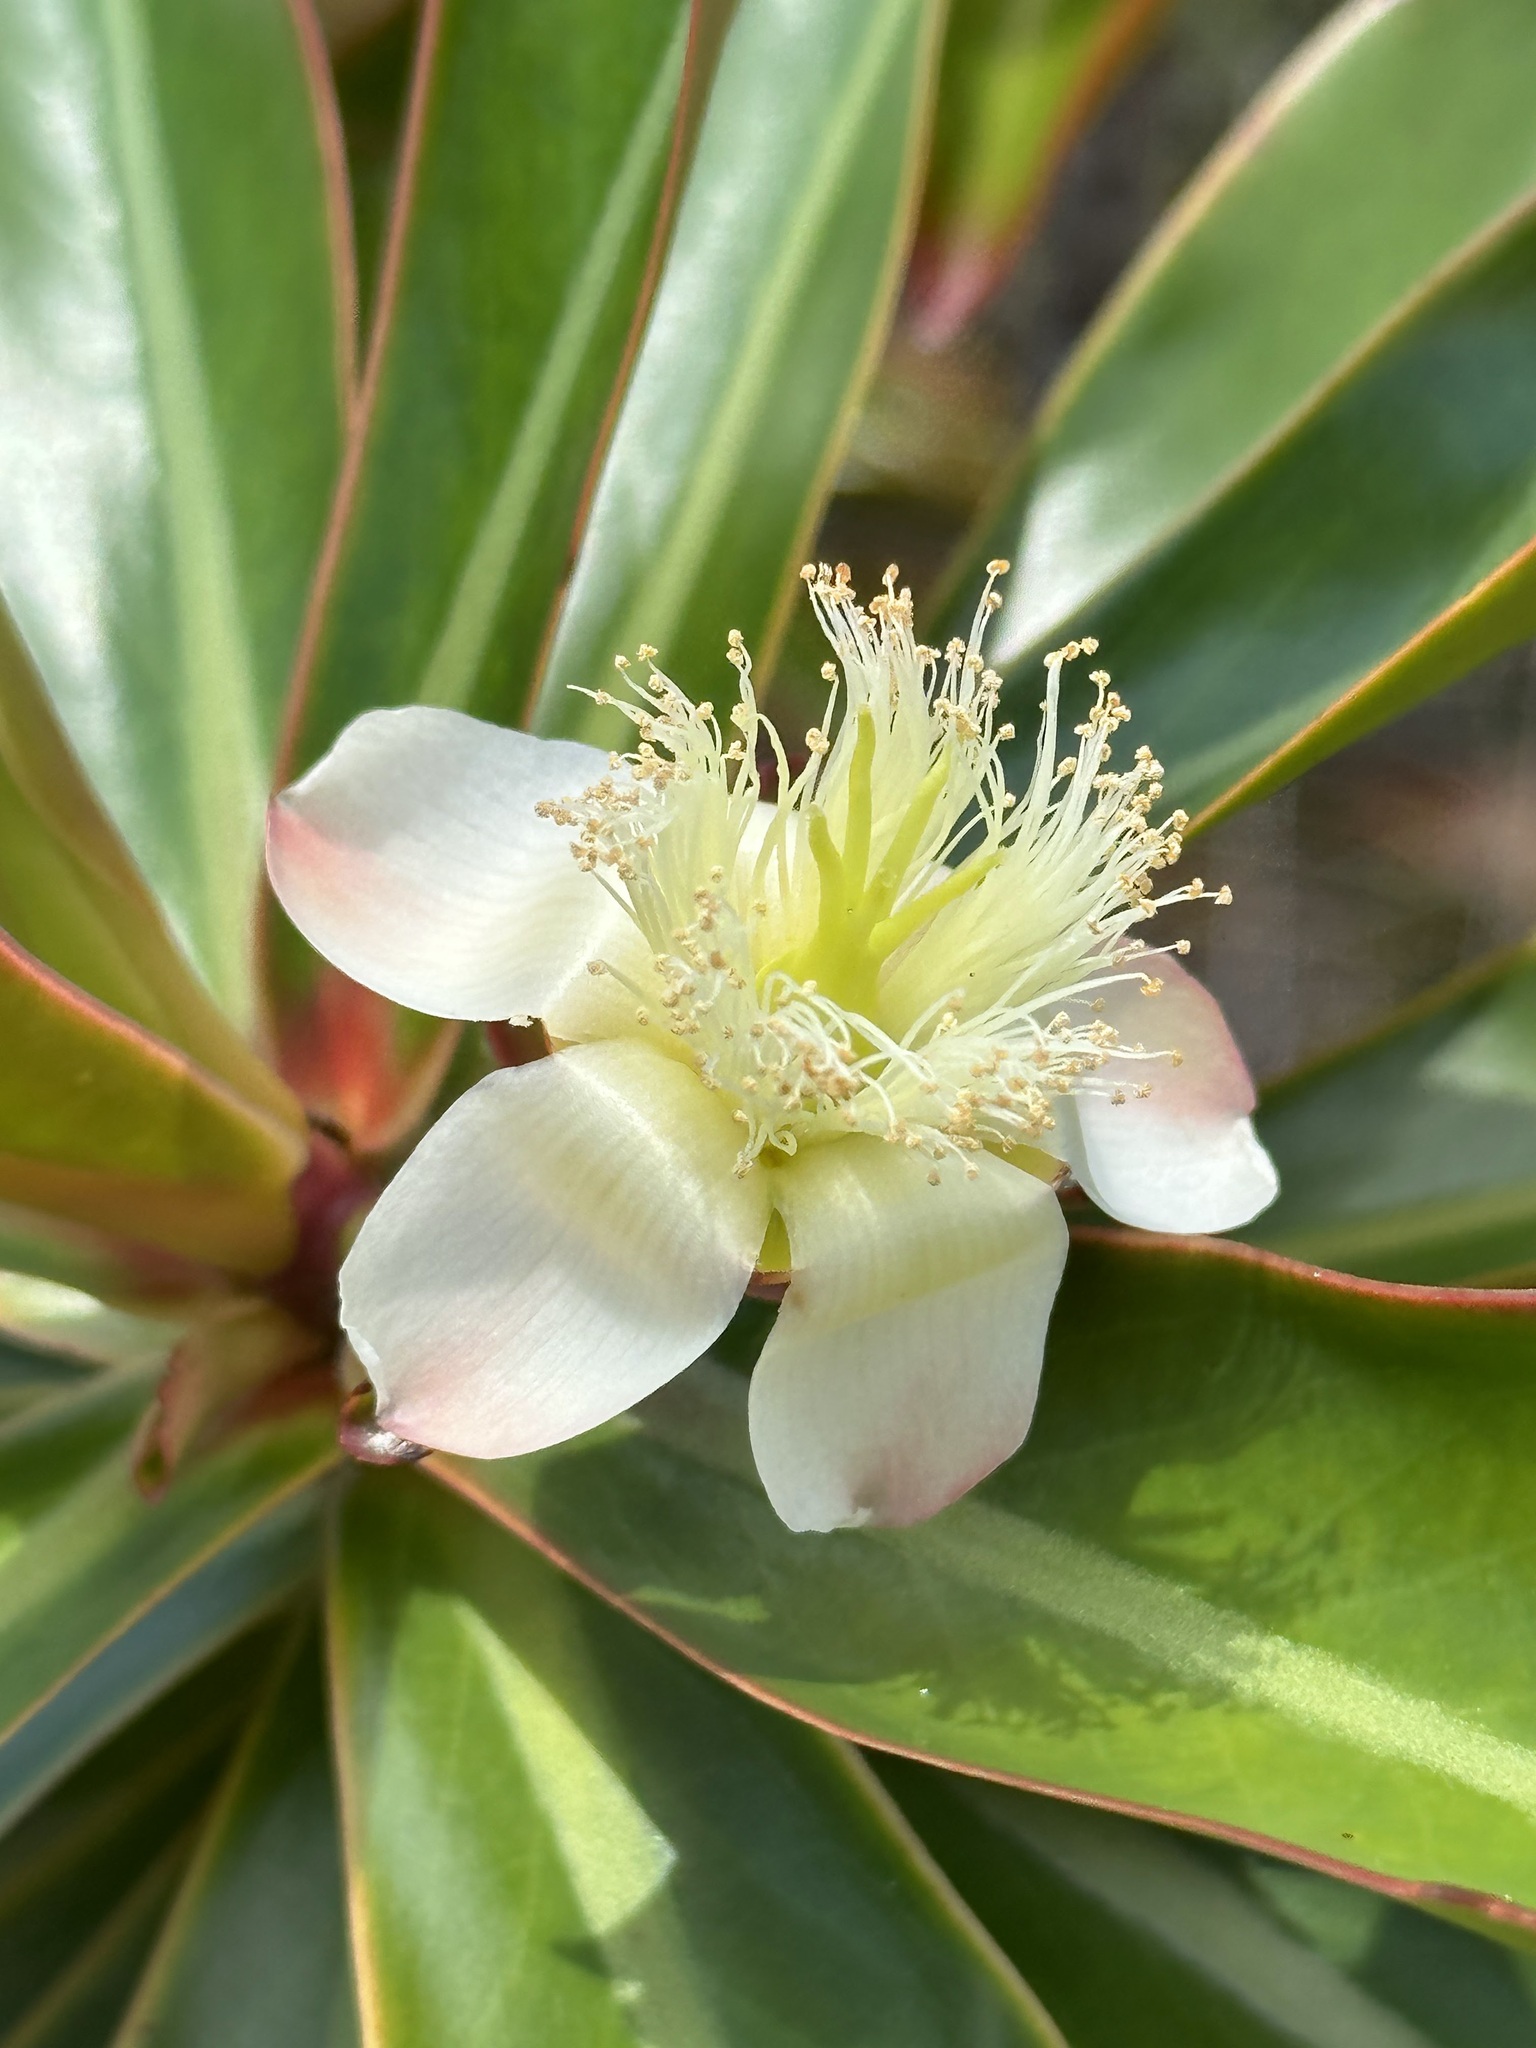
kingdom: Plantae
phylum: Tracheophyta
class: Magnoliopsida
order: Malpighiales
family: Bonnetiaceae
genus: Ploiarium
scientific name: Ploiarium elegans
